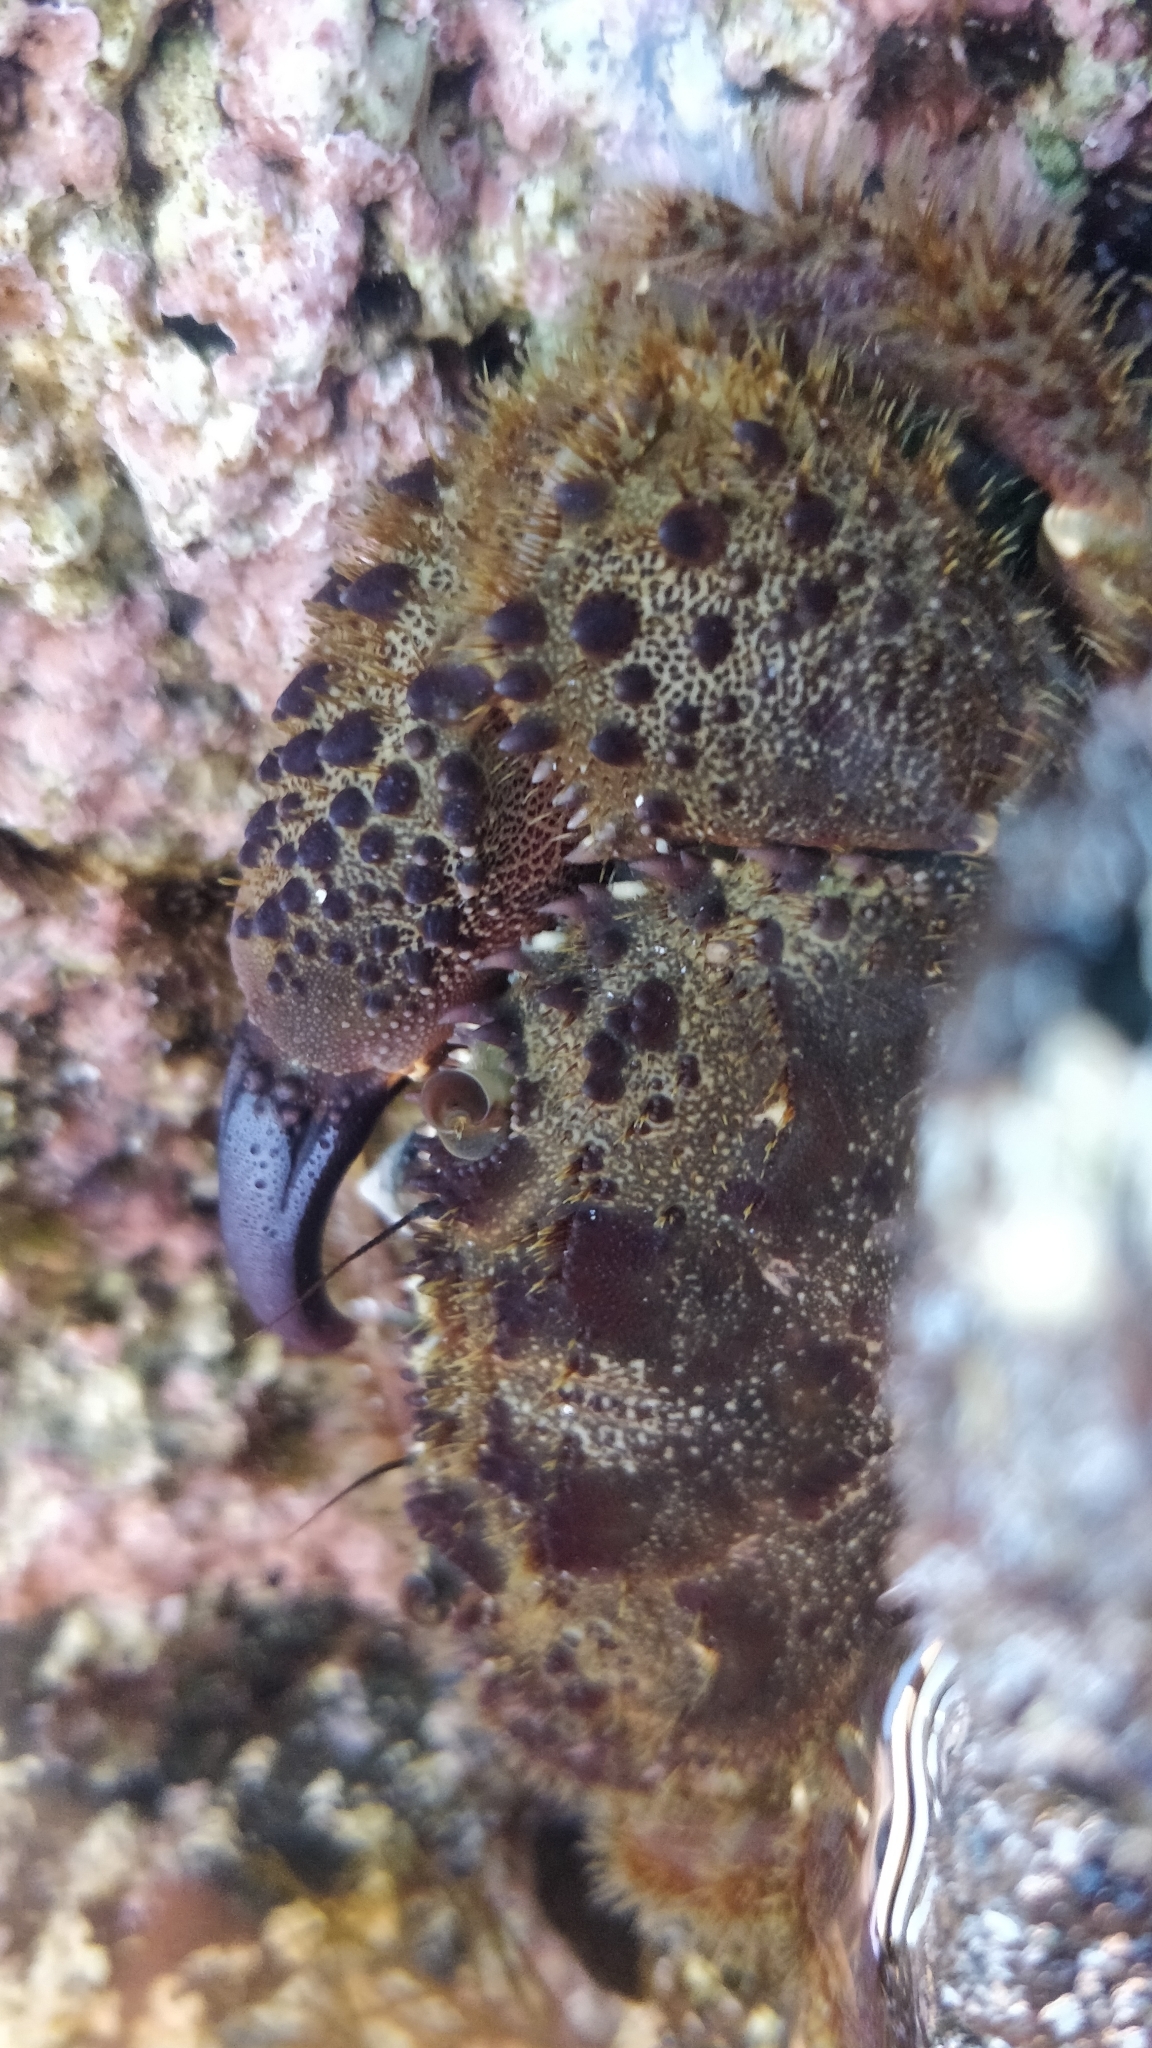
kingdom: Animalia
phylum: Arthropoda
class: Malacostraca
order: Decapoda
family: Eriphiidae
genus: Eriphia
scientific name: Eriphia verrucosa
